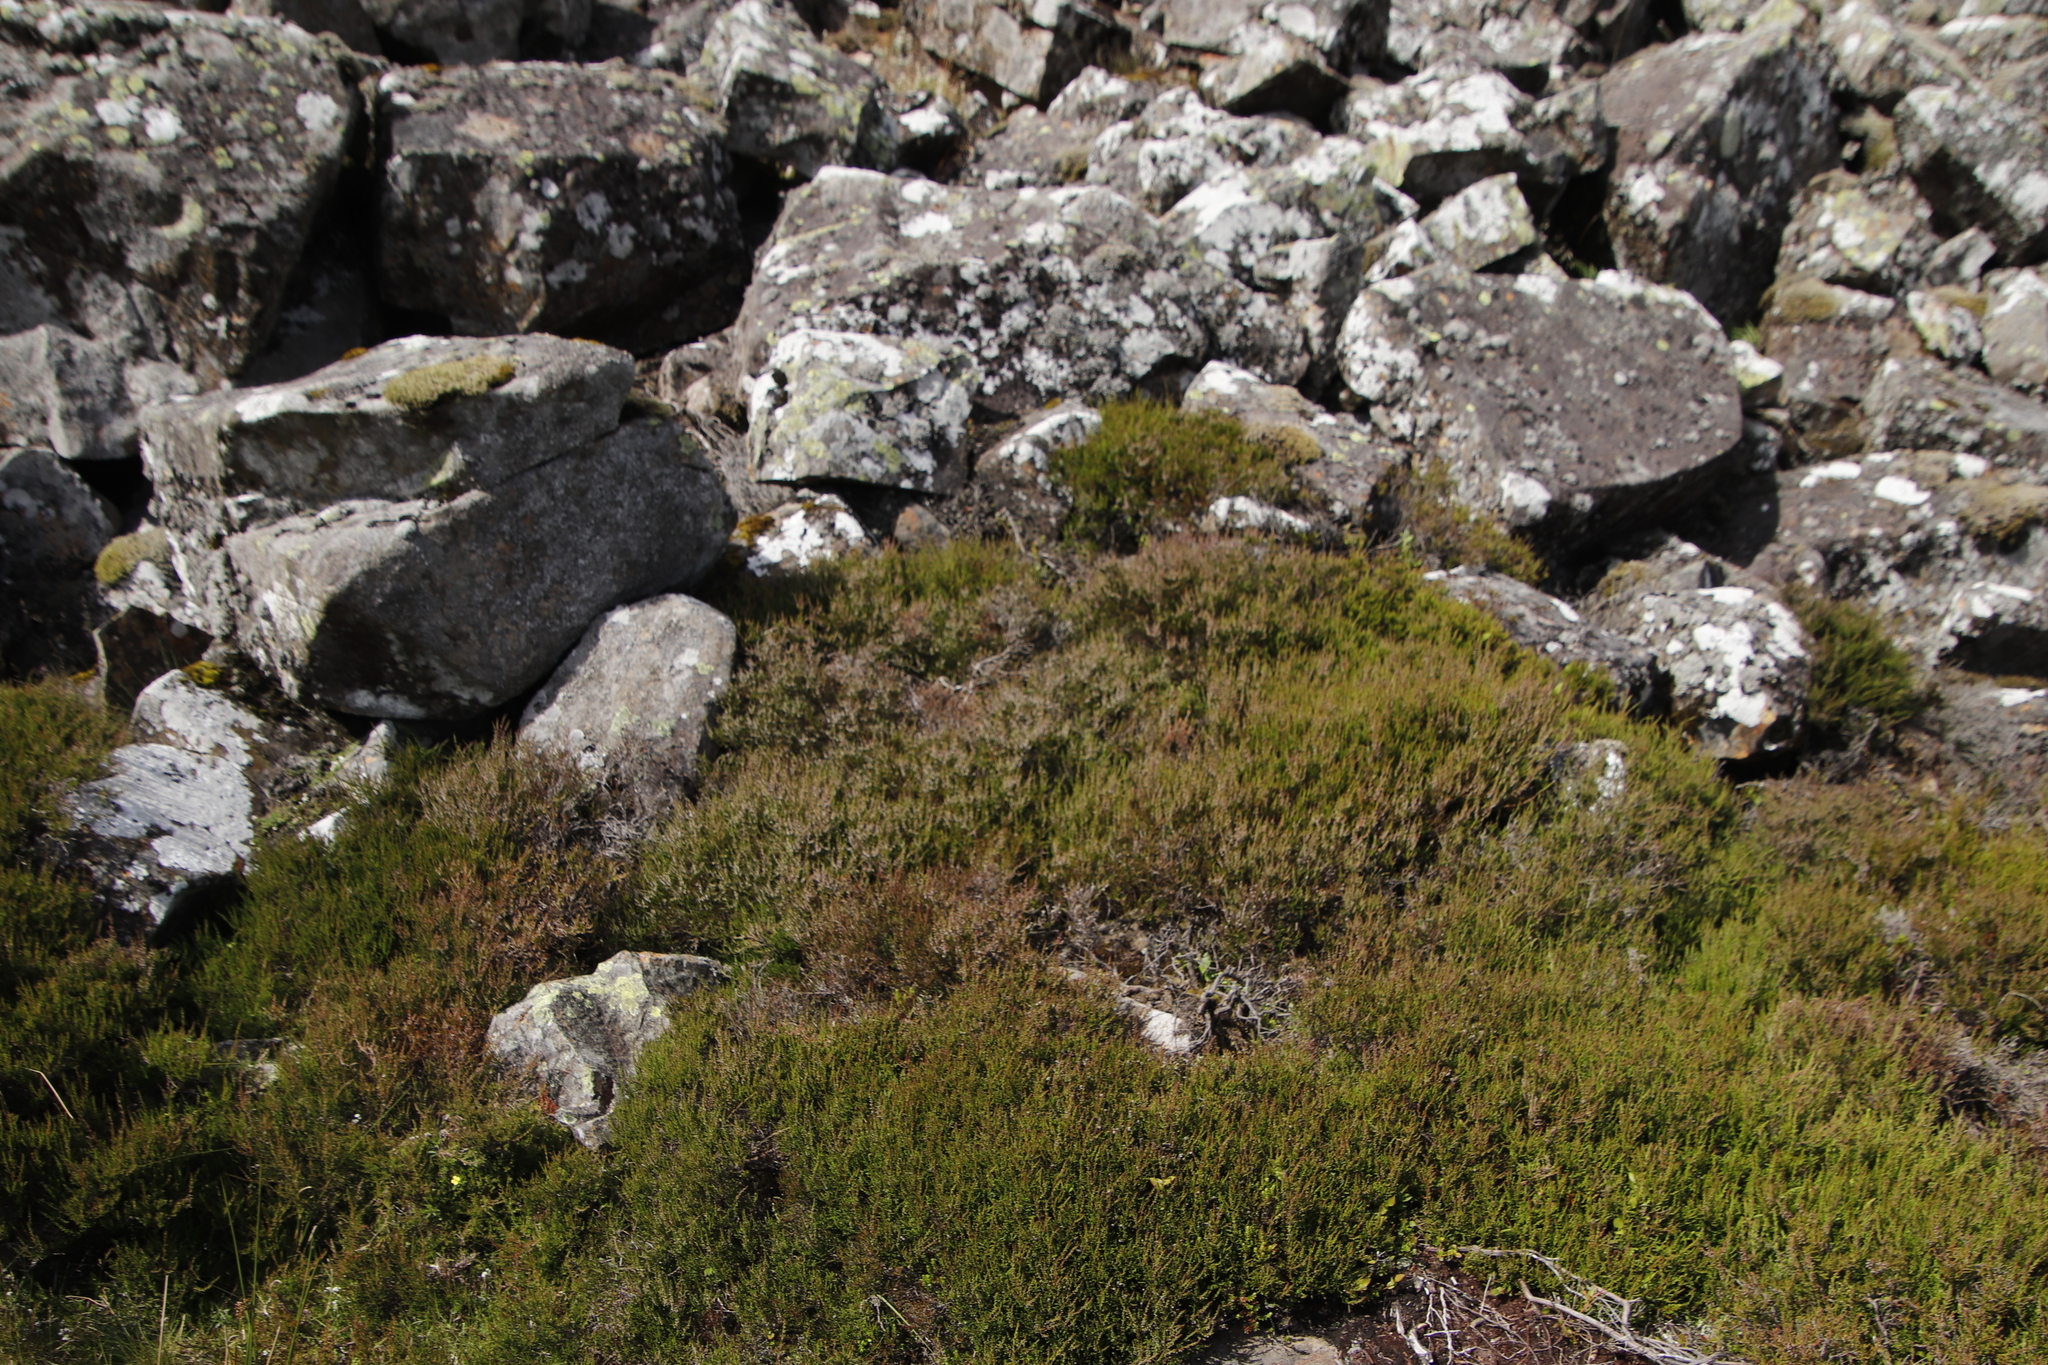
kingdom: Plantae
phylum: Tracheophyta
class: Magnoliopsida
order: Ericales
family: Ericaceae
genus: Calluna
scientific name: Calluna vulgaris
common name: Heather
